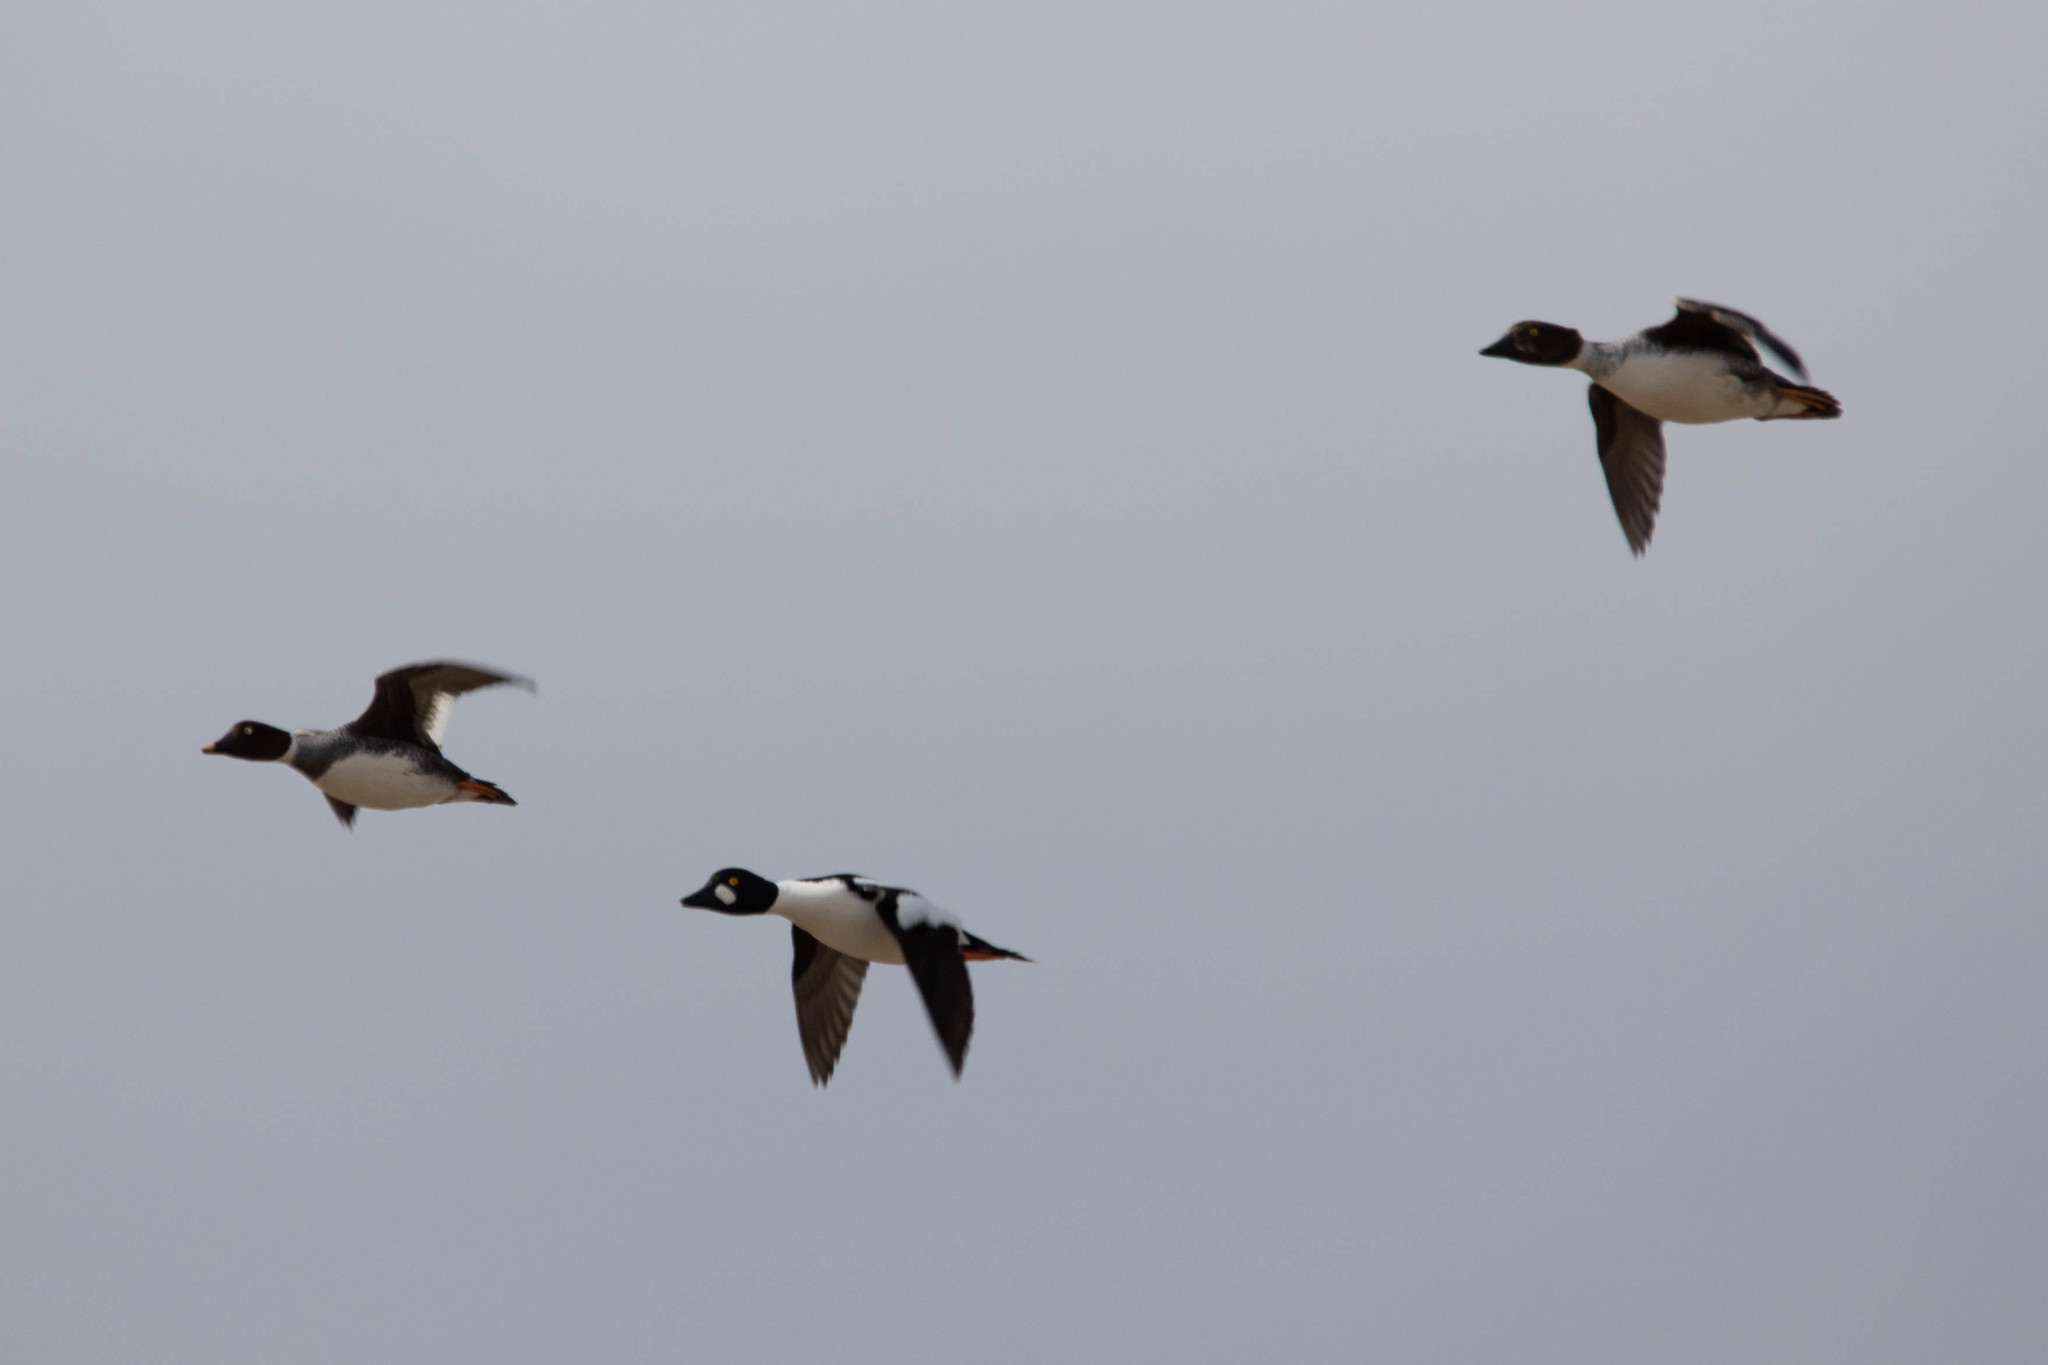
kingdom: Animalia
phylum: Chordata
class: Aves
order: Anseriformes
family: Anatidae
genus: Bucephala
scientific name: Bucephala clangula
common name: Common goldeneye
